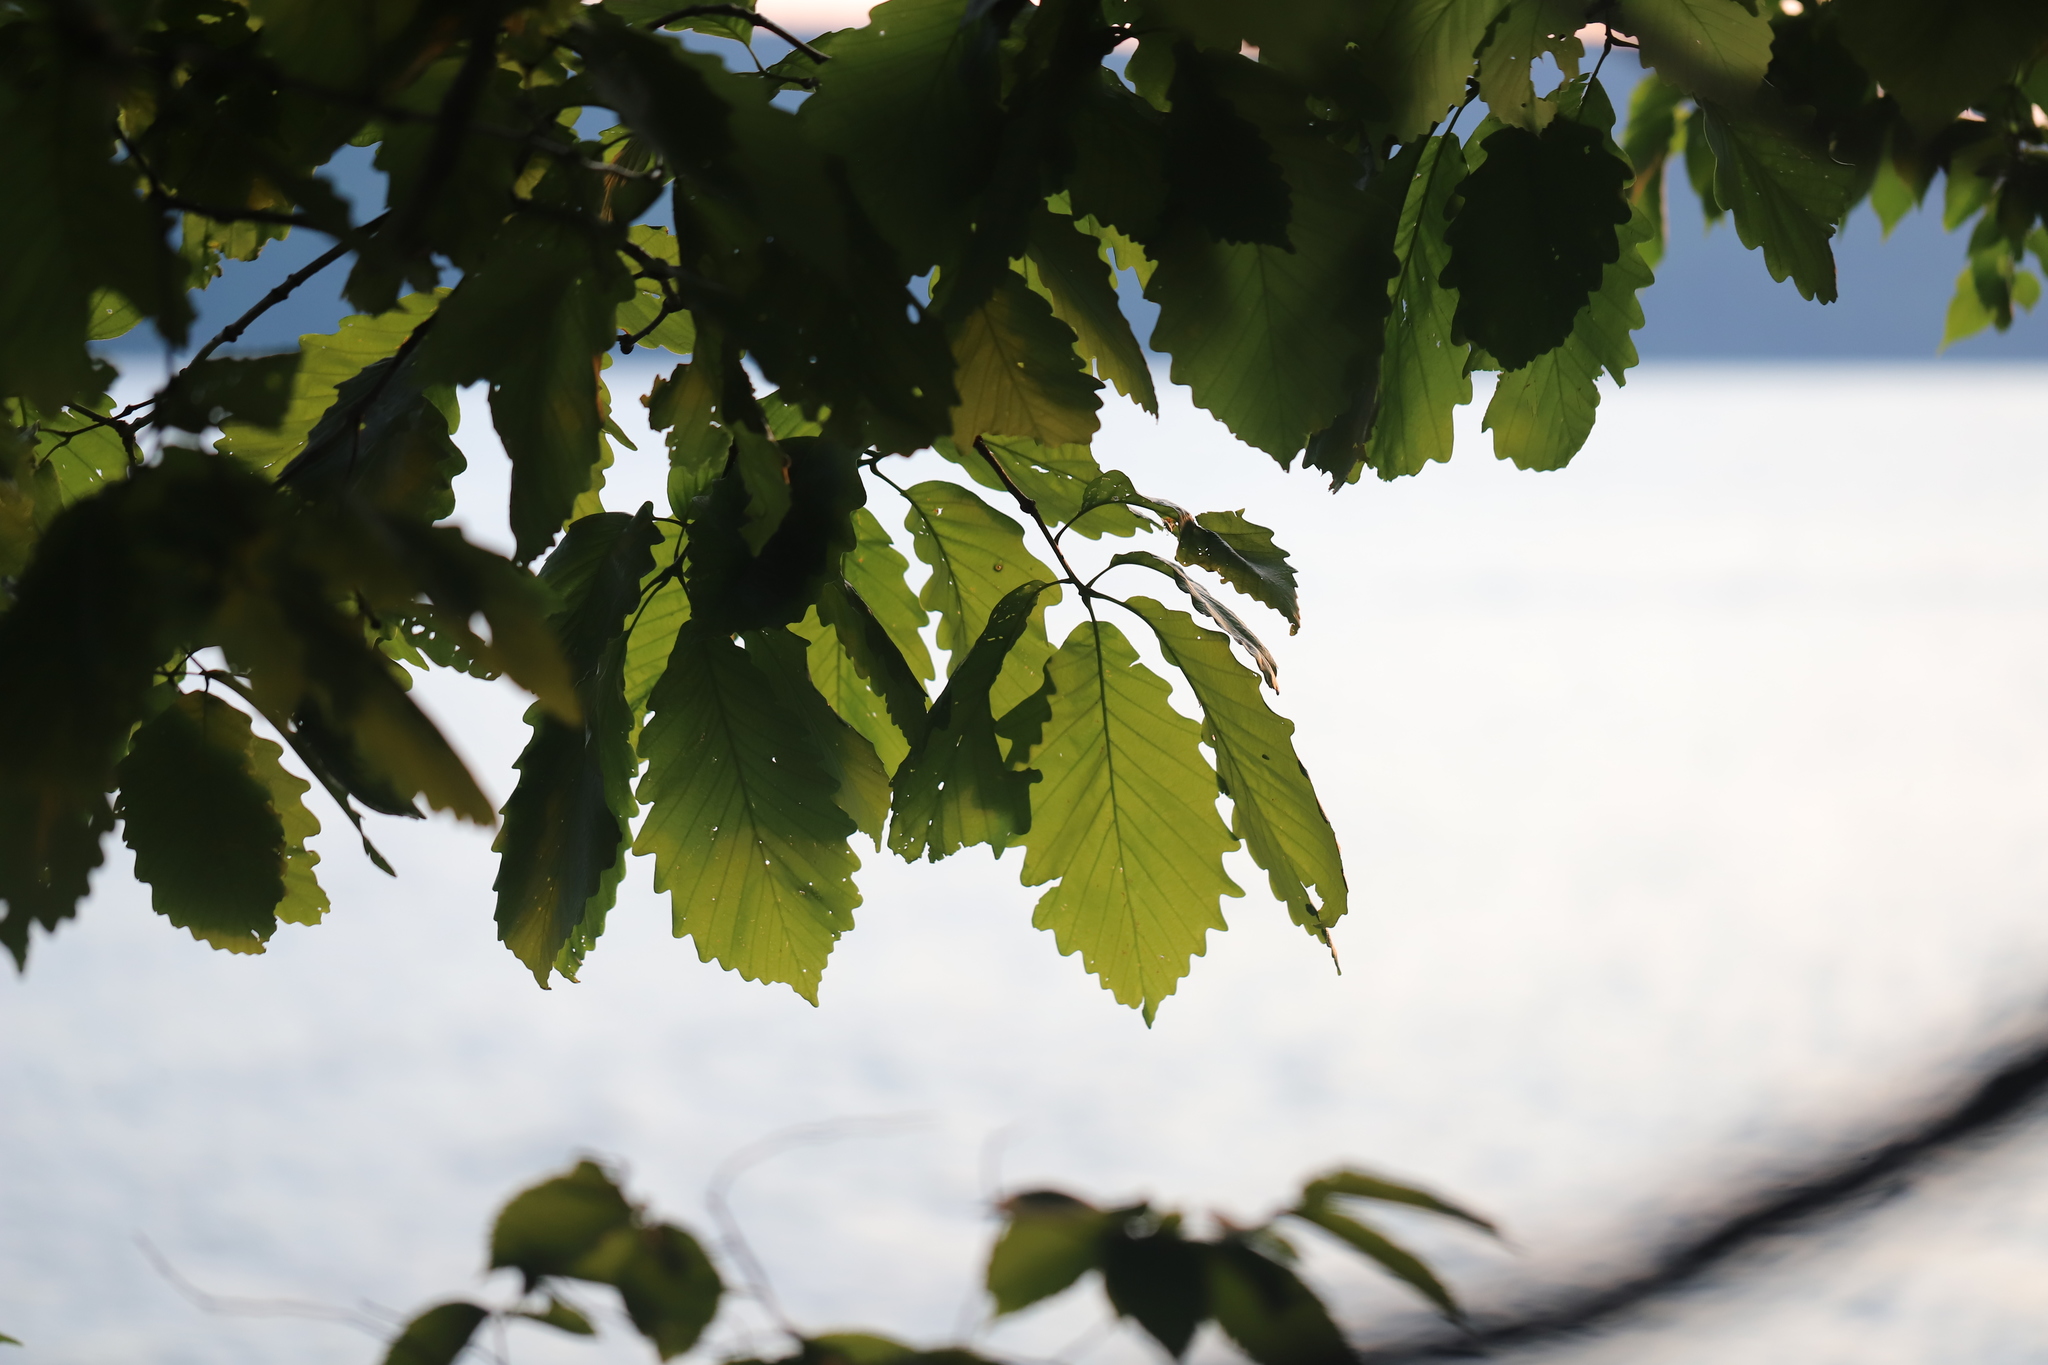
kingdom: Plantae
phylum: Tracheophyta
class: Magnoliopsida
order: Fagales
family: Fagaceae
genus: Quercus
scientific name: Quercus montana
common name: Chestnut oak
